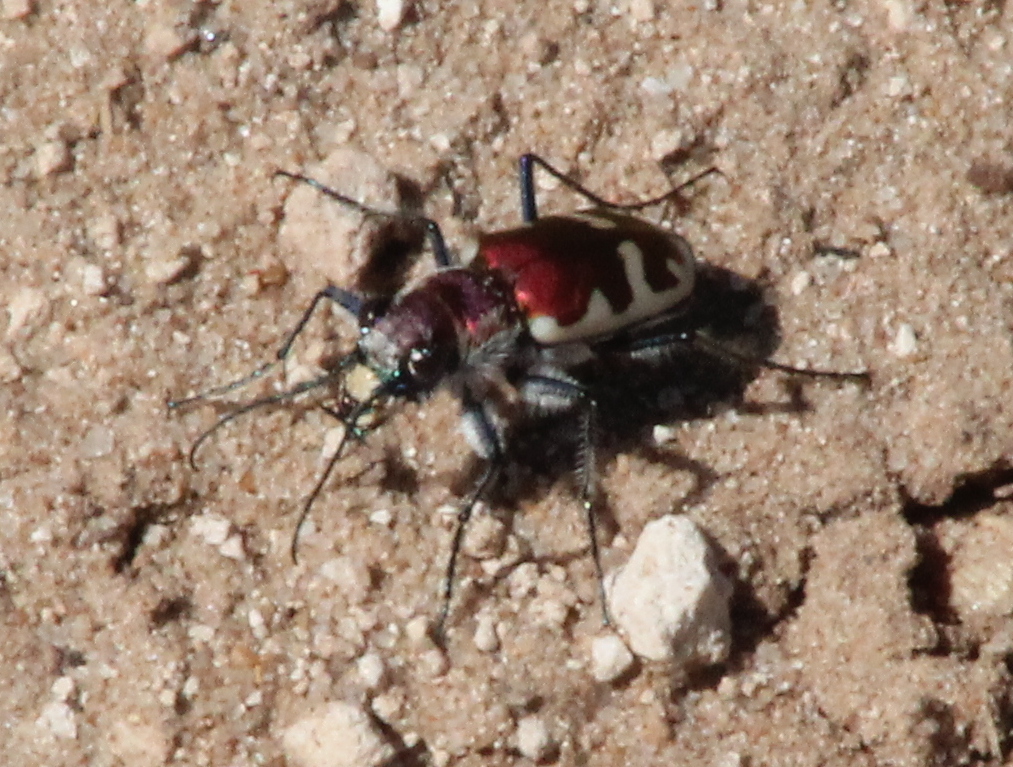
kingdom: Animalia
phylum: Arthropoda
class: Insecta
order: Coleoptera
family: Carabidae
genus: Cicindela
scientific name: Cicindela formosa
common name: Big sand tiger beetle
